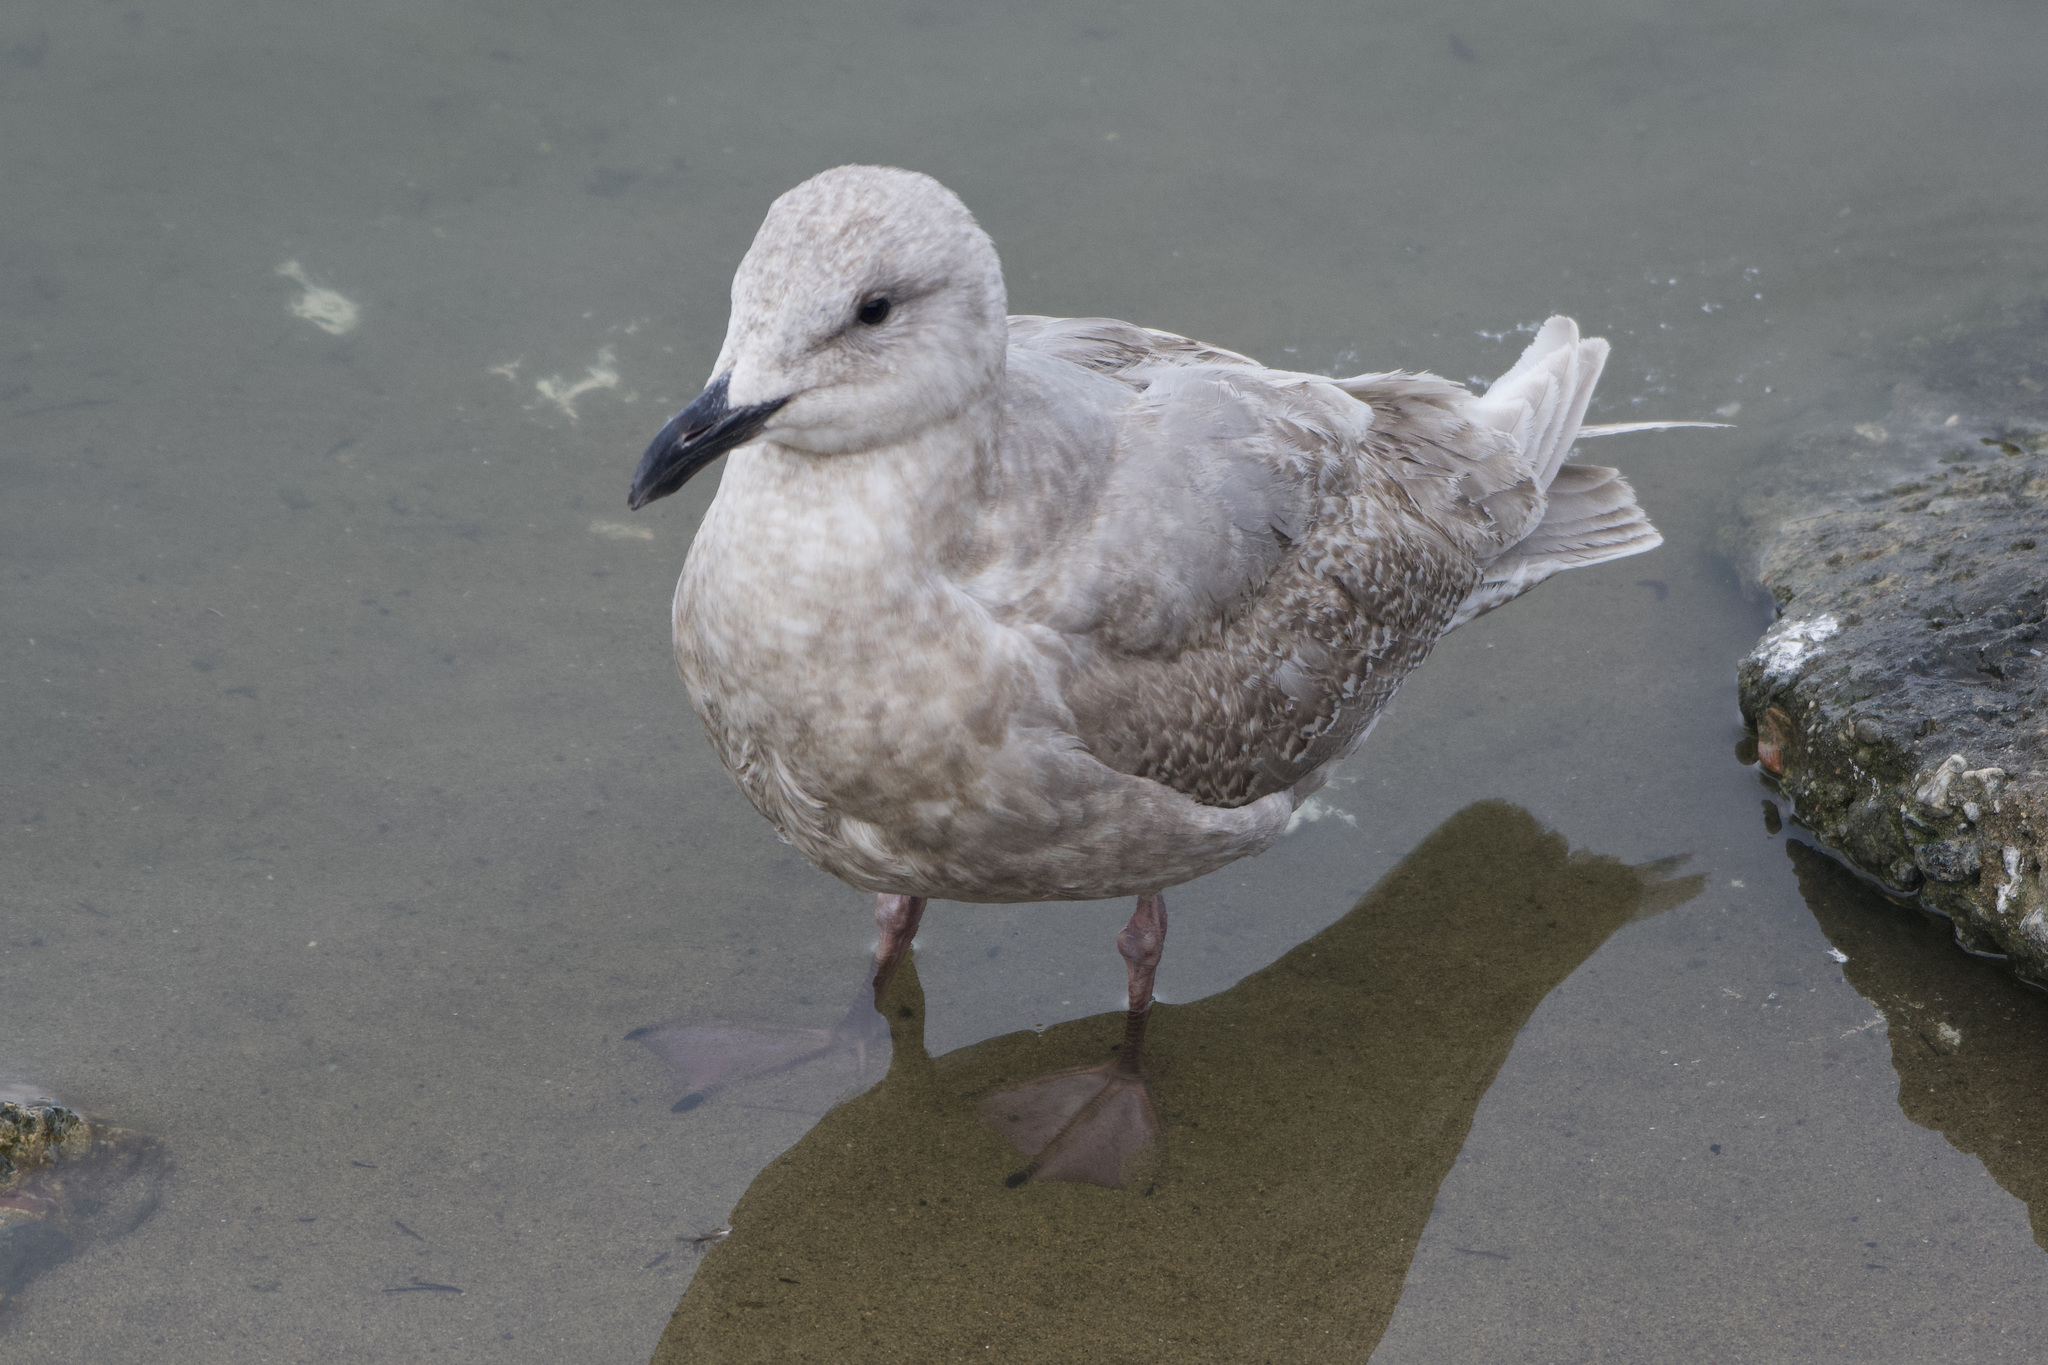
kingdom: Animalia
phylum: Chordata
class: Aves
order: Charadriiformes
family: Laridae
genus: Larus
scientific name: Larus glaucescens
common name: Glaucous-winged gull
